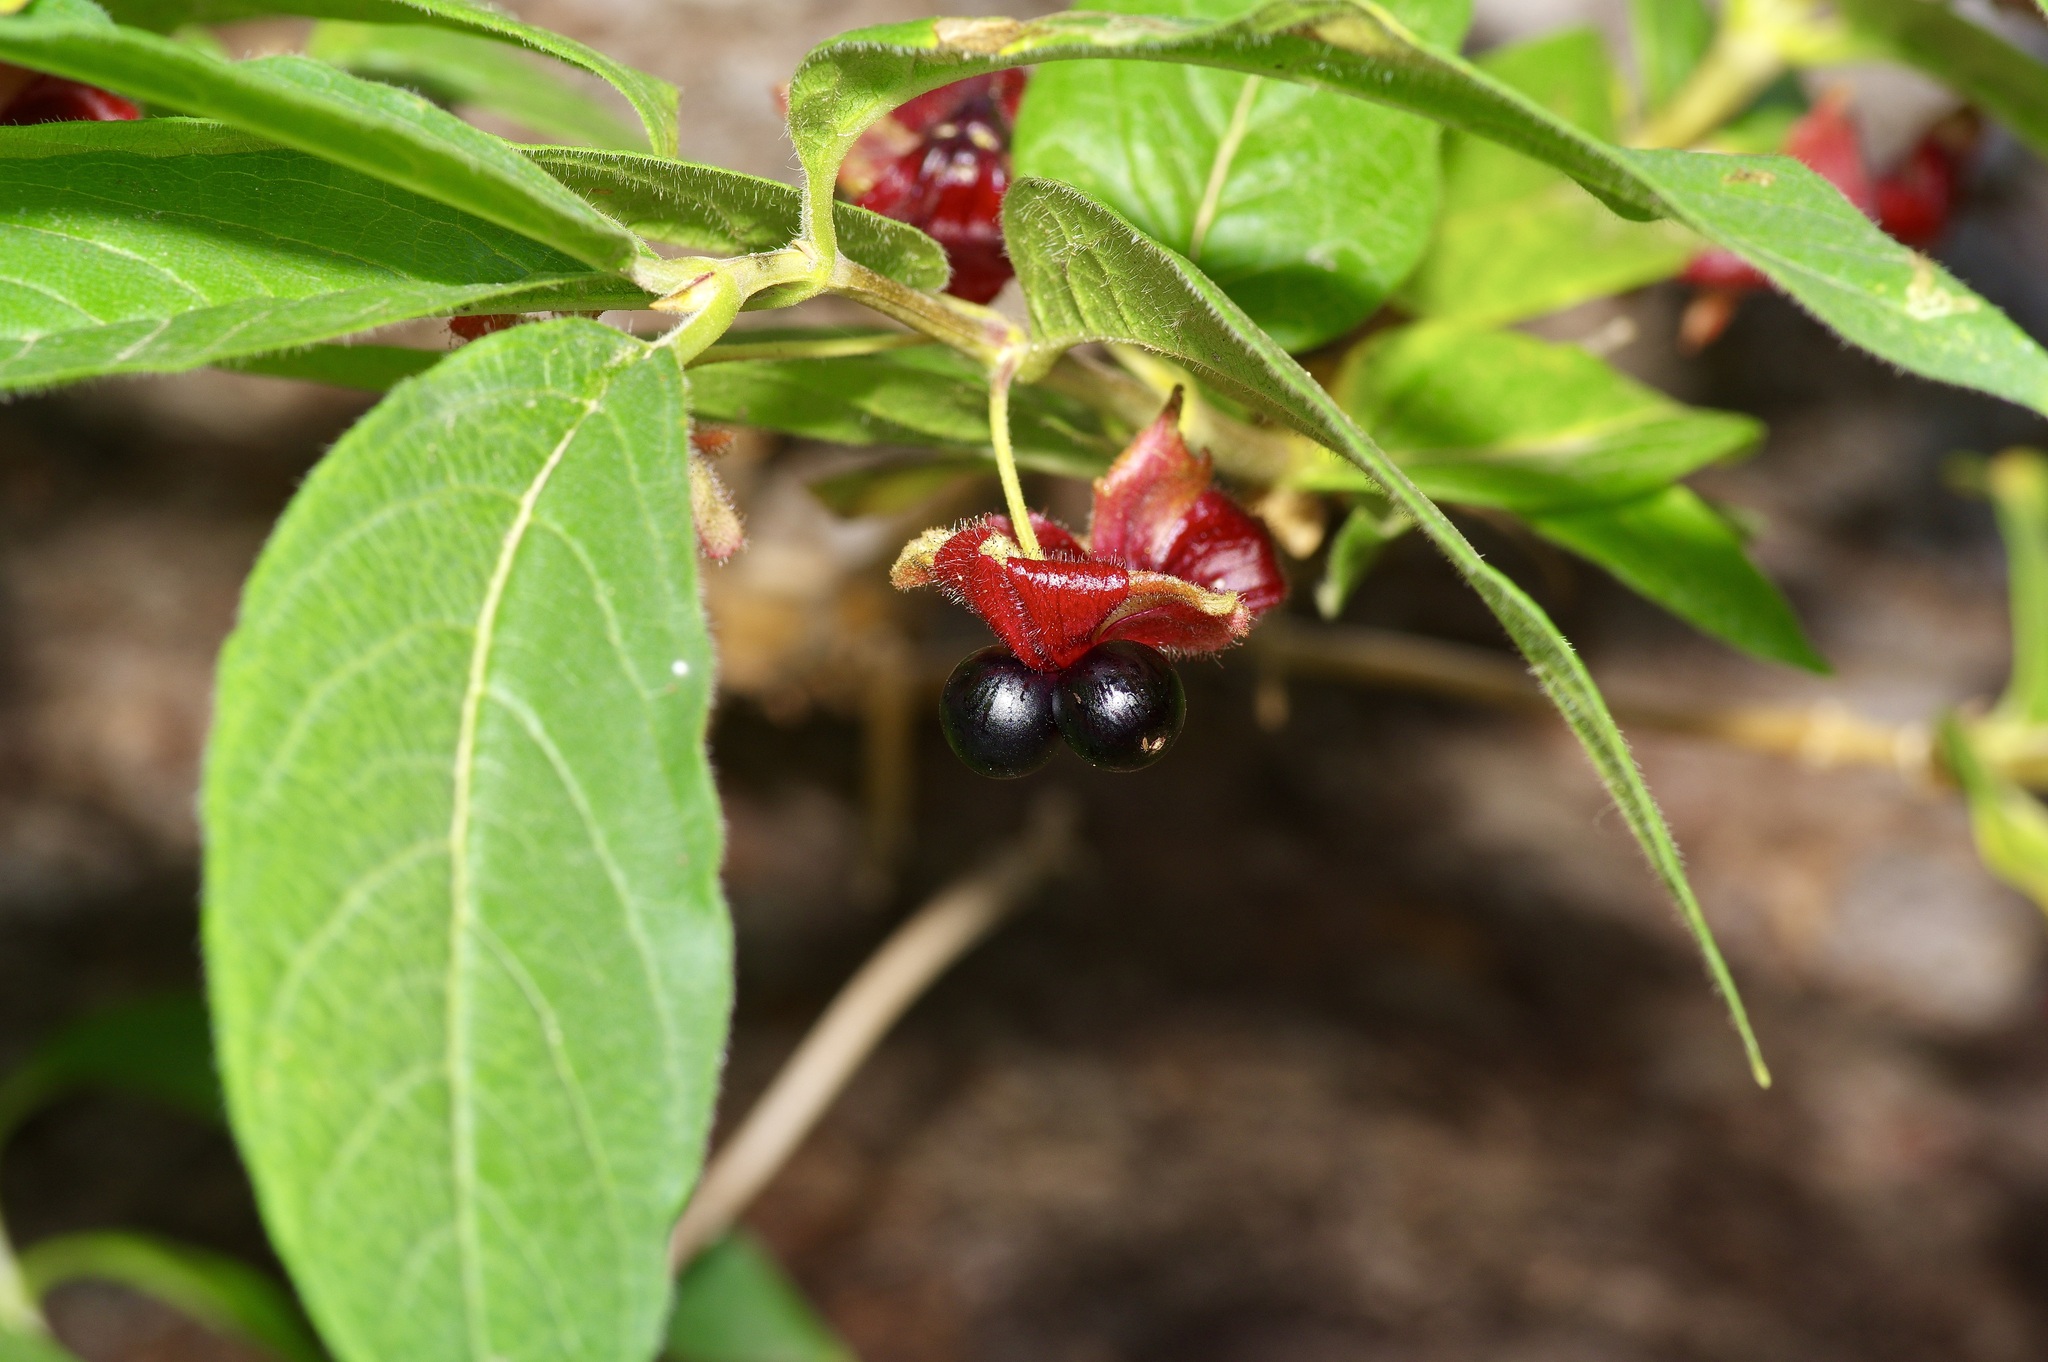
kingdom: Plantae
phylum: Tracheophyta
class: Magnoliopsida
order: Dipsacales
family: Caprifoliaceae
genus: Lonicera
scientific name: Lonicera involucrata
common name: Californian honeysuckle
